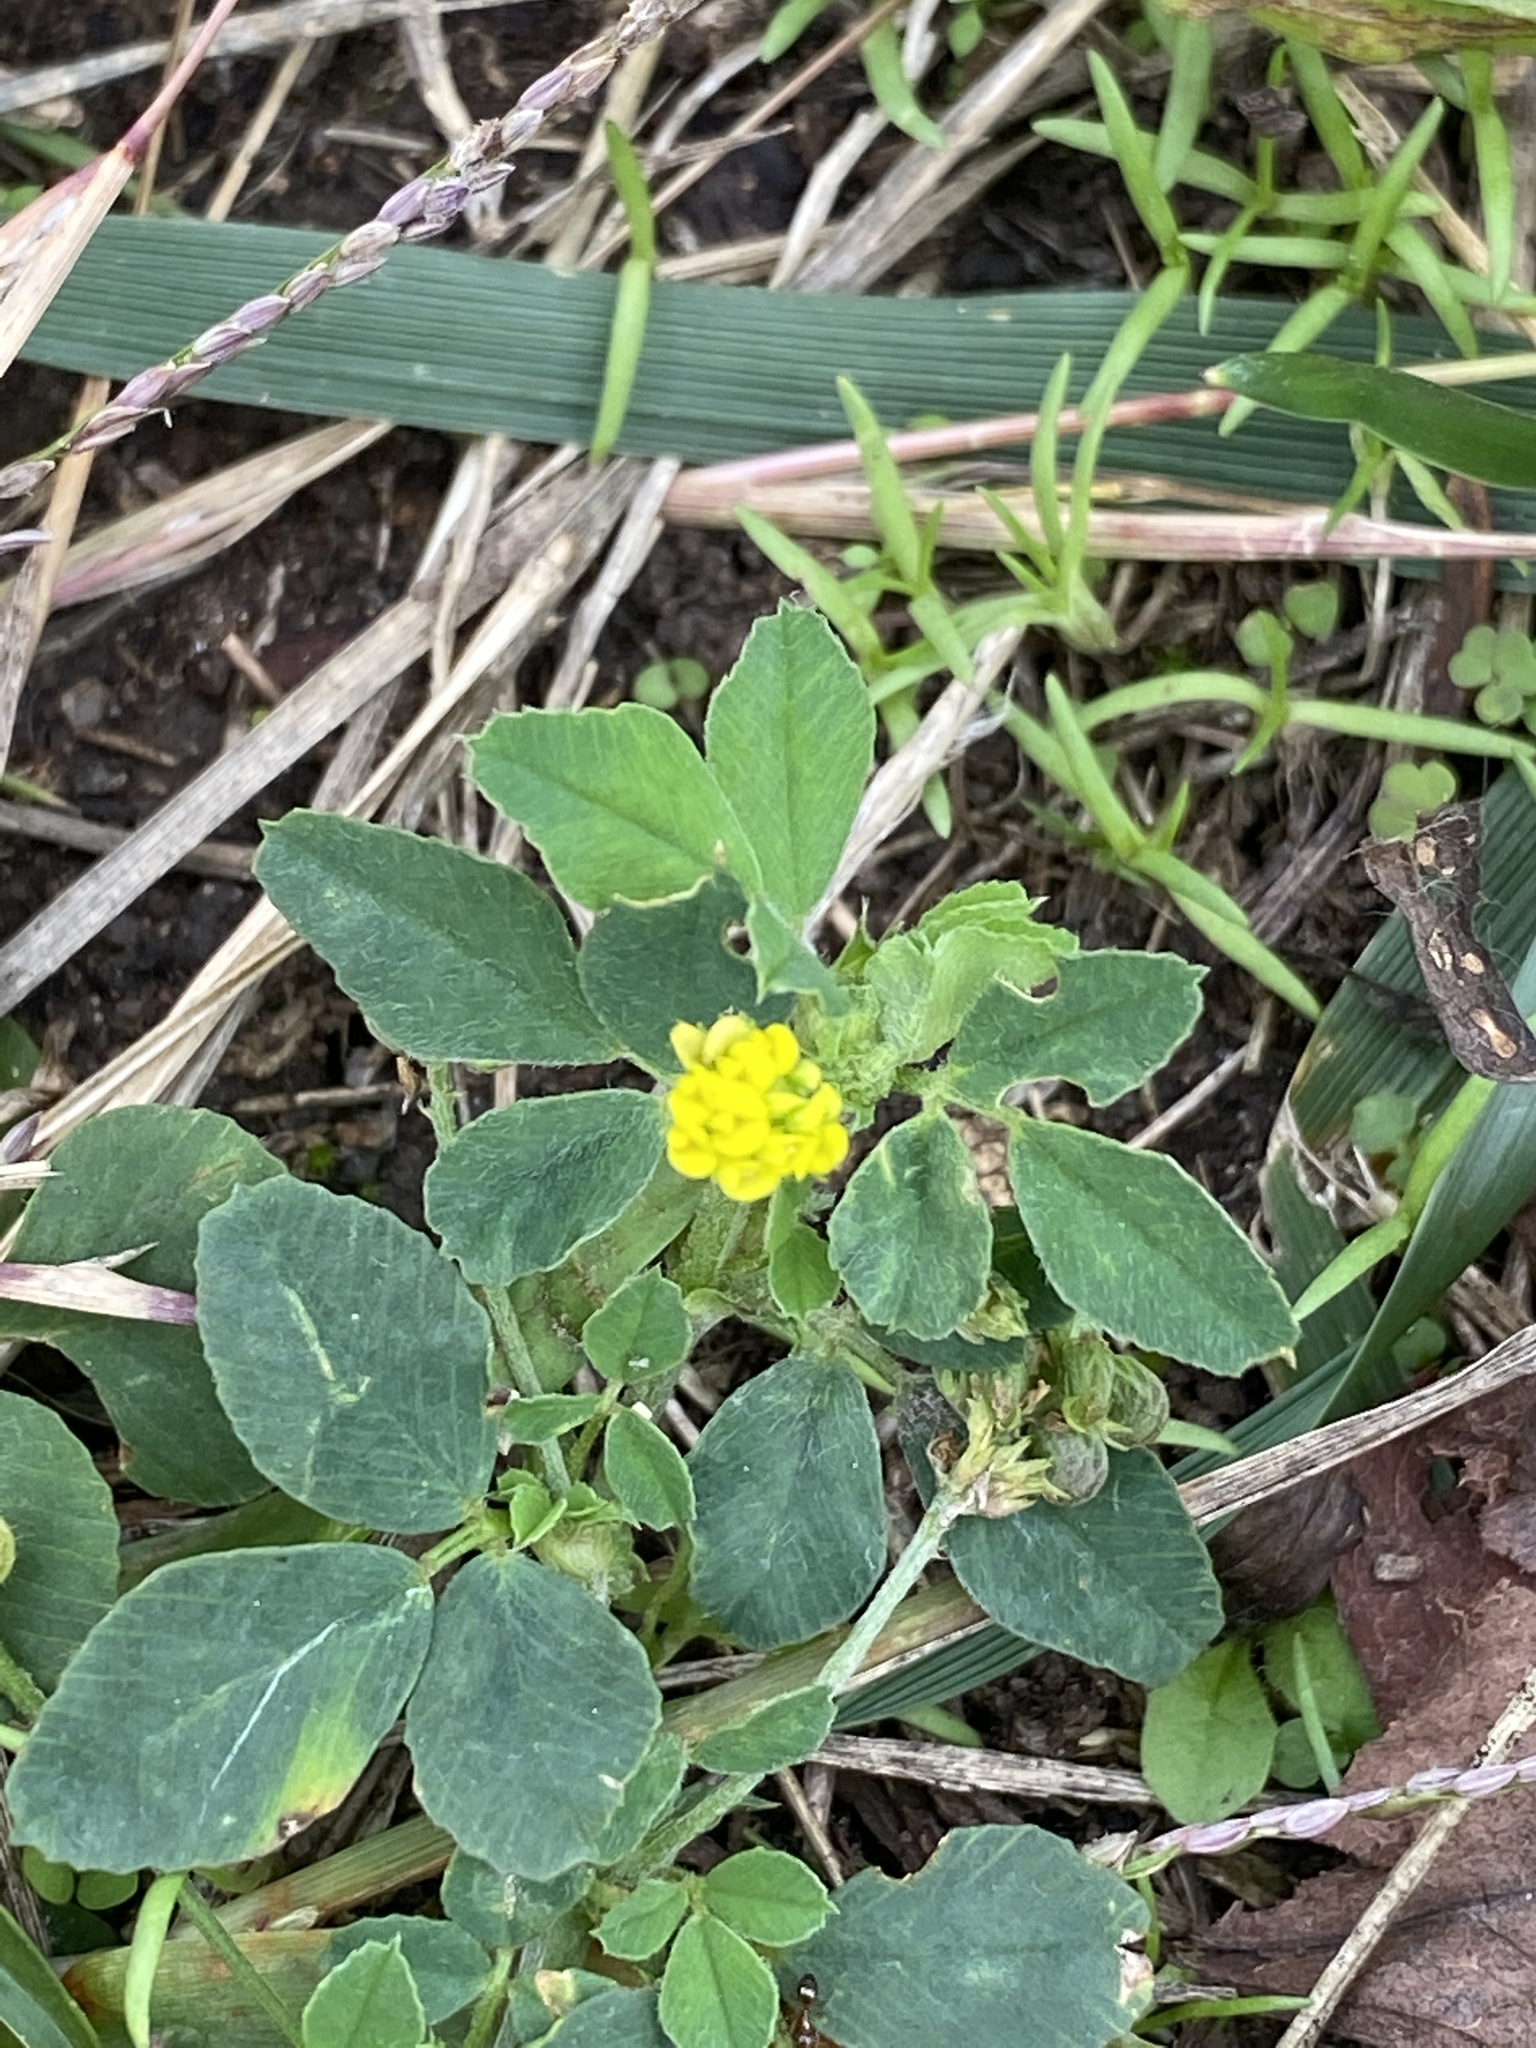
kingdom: Plantae
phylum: Tracheophyta
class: Magnoliopsida
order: Fabales
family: Fabaceae
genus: Medicago
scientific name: Medicago lupulina
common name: Black medick
